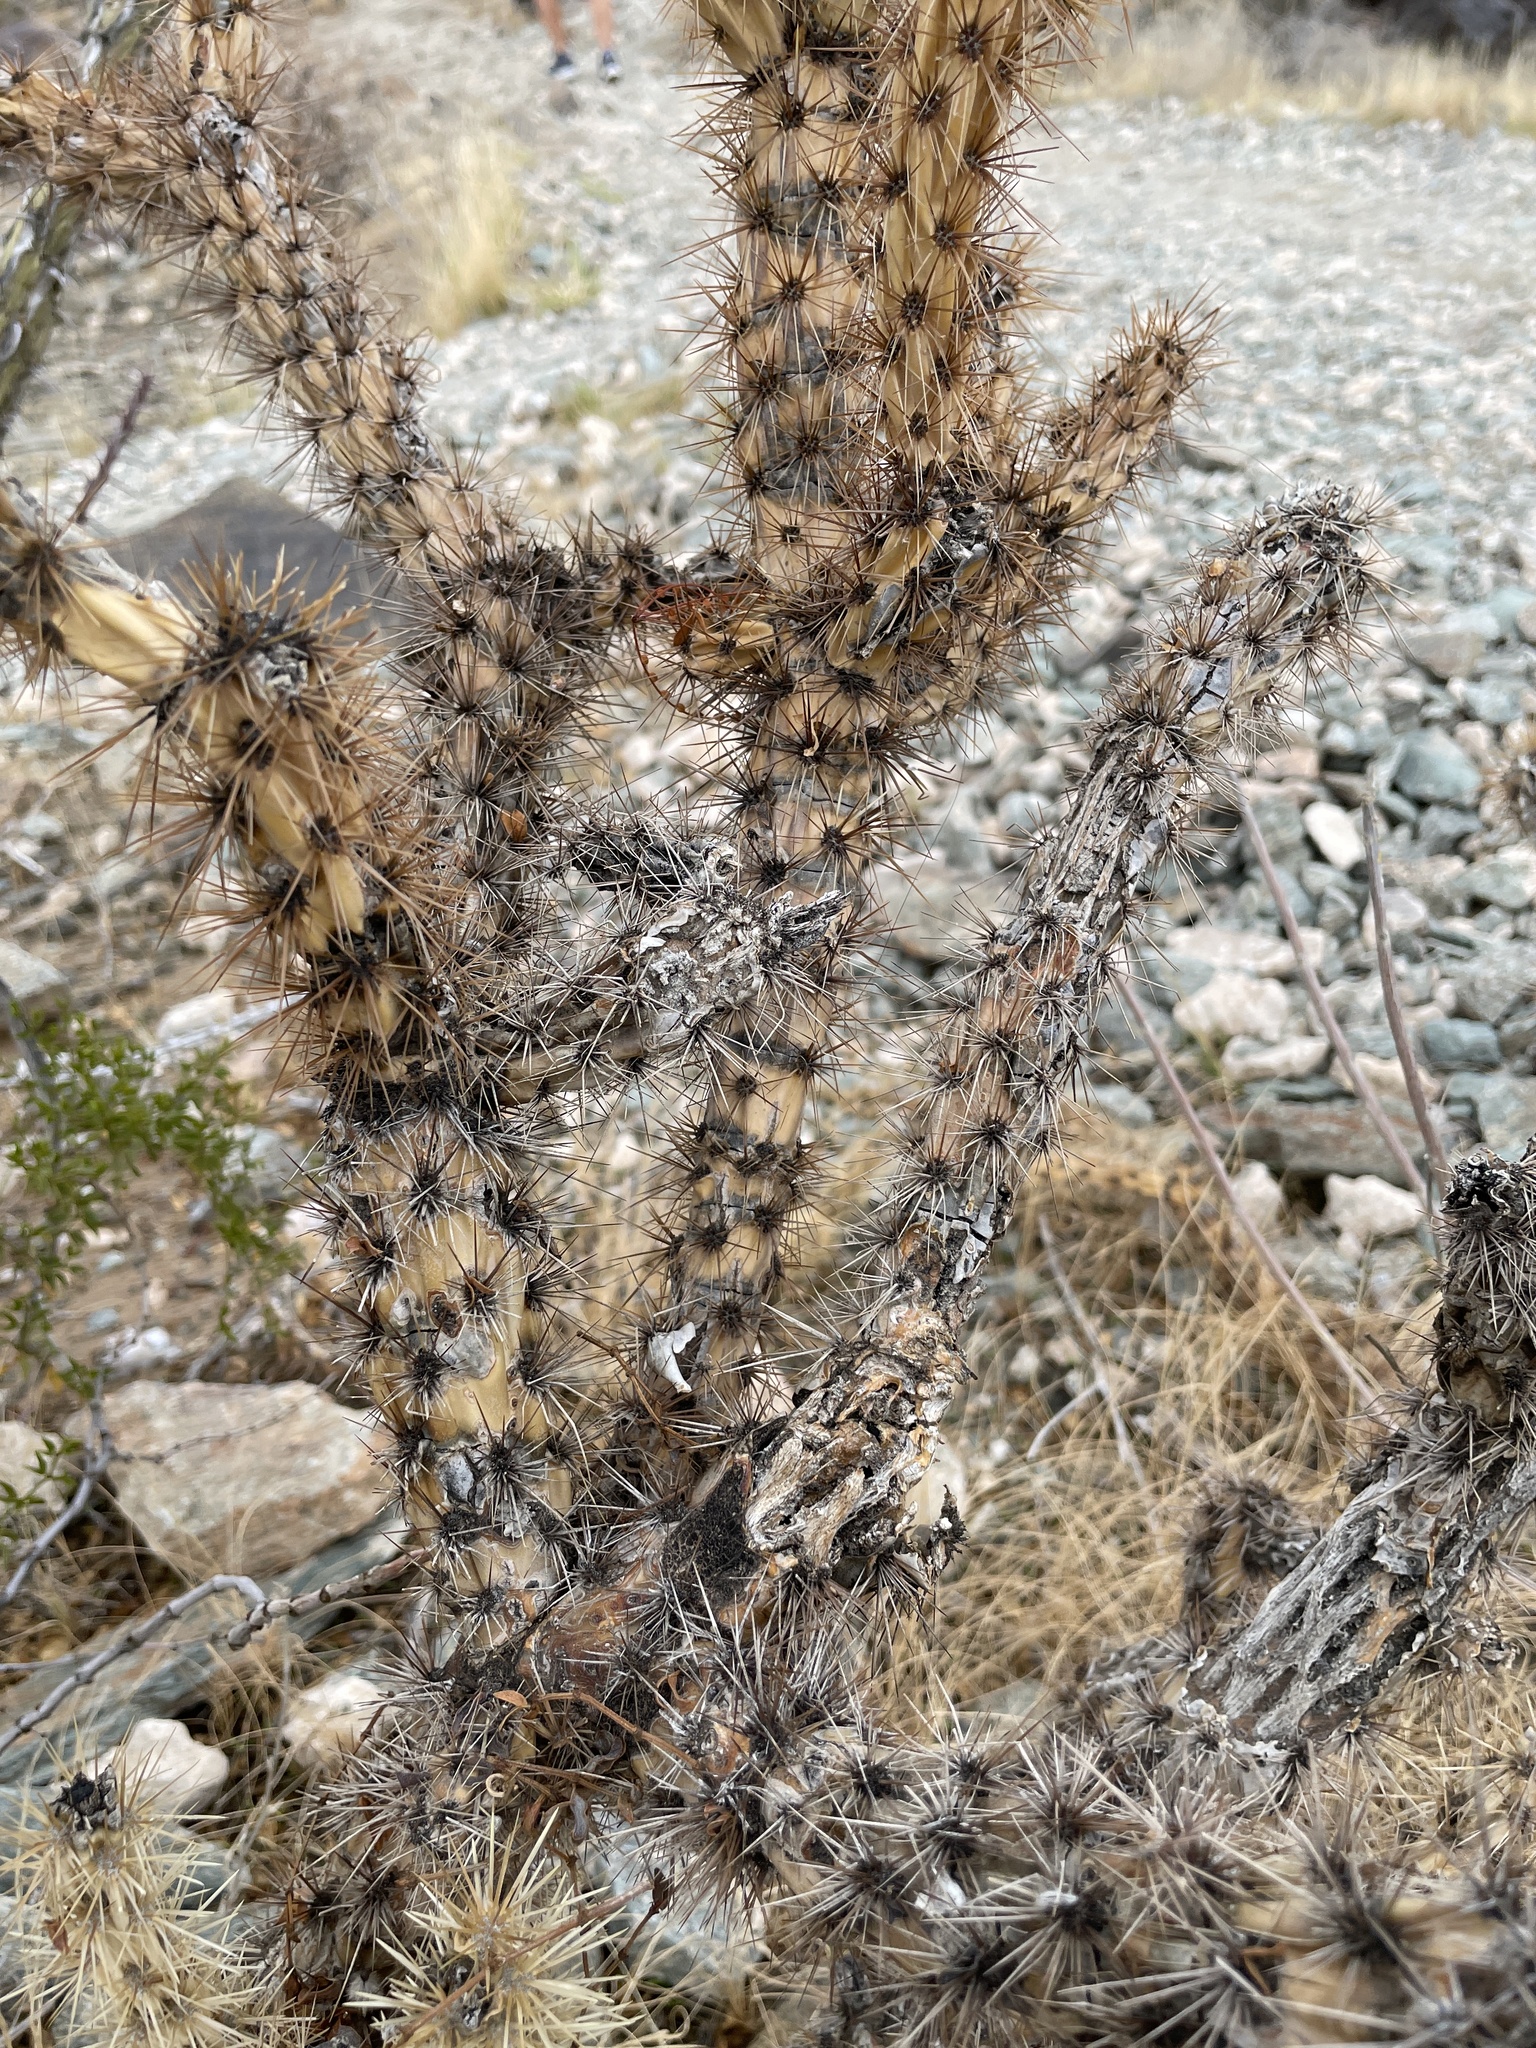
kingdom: Plantae
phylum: Tracheophyta
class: Magnoliopsida
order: Caryophyllales
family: Cactaceae
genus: Cylindropuntia
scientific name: Cylindropuntia acanthocarpa
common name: Buckhorn cholla
